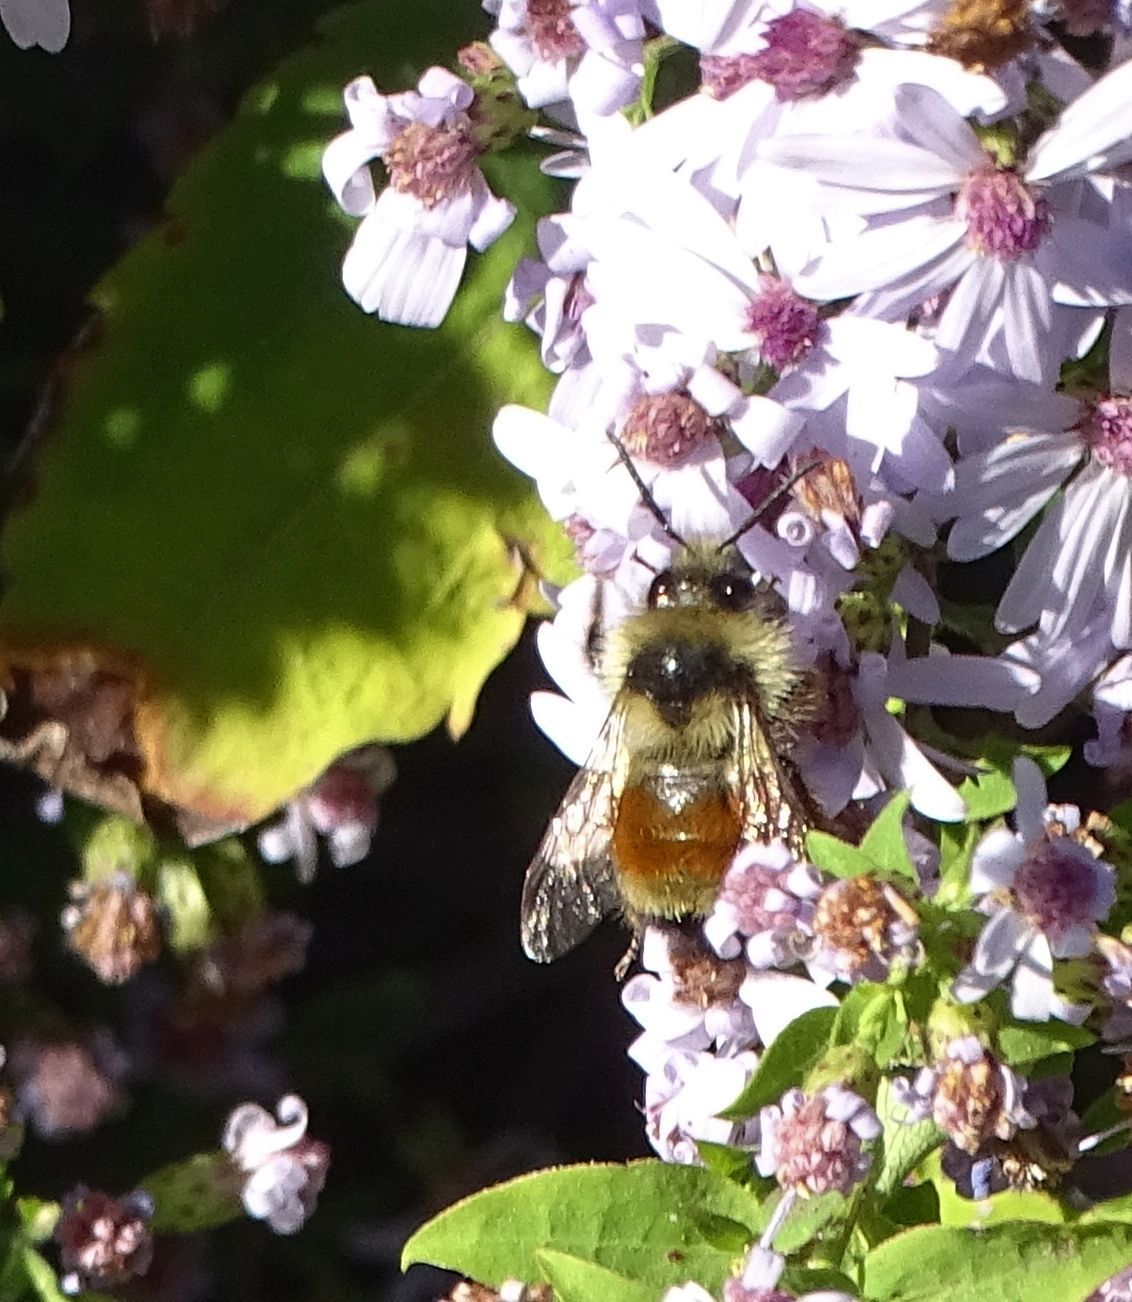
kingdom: Animalia
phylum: Arthropoda
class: Insecta
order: Hymenoptera
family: Apidae
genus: Bombus
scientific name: Bombus ternarius
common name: Tri-colored bumble bee
